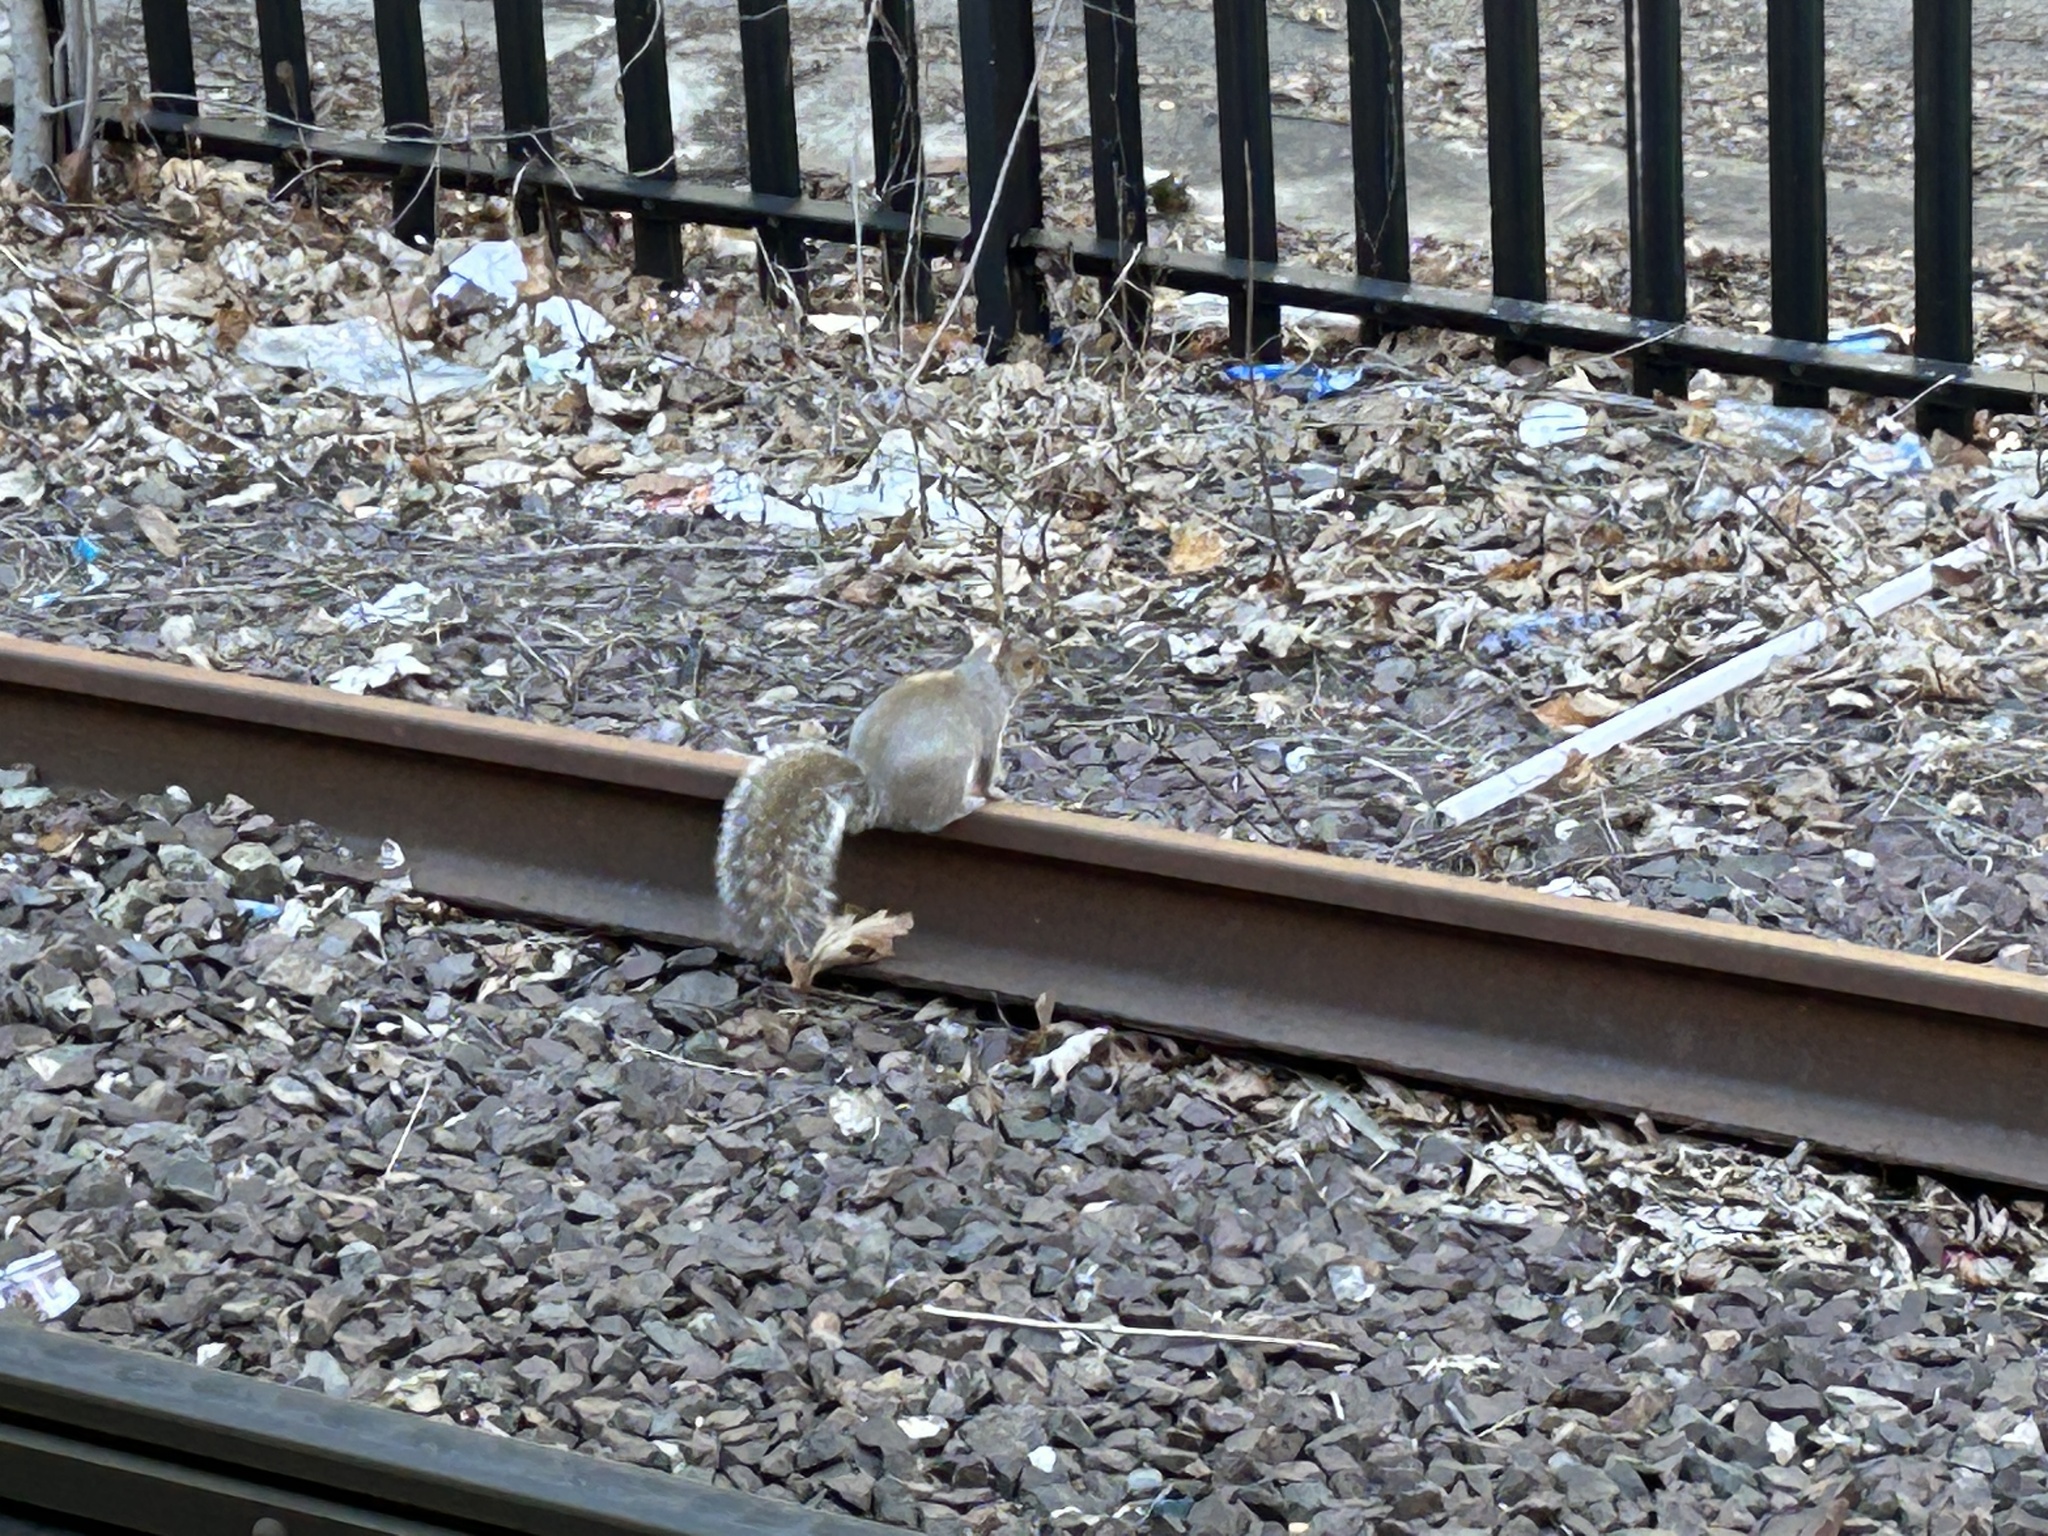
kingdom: Animalia
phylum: Chordata
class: Mammalia
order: Rodentia
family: Sciuridae
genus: Sciurus
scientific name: Sciurus carolinensis
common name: Eastern gray squirrel
